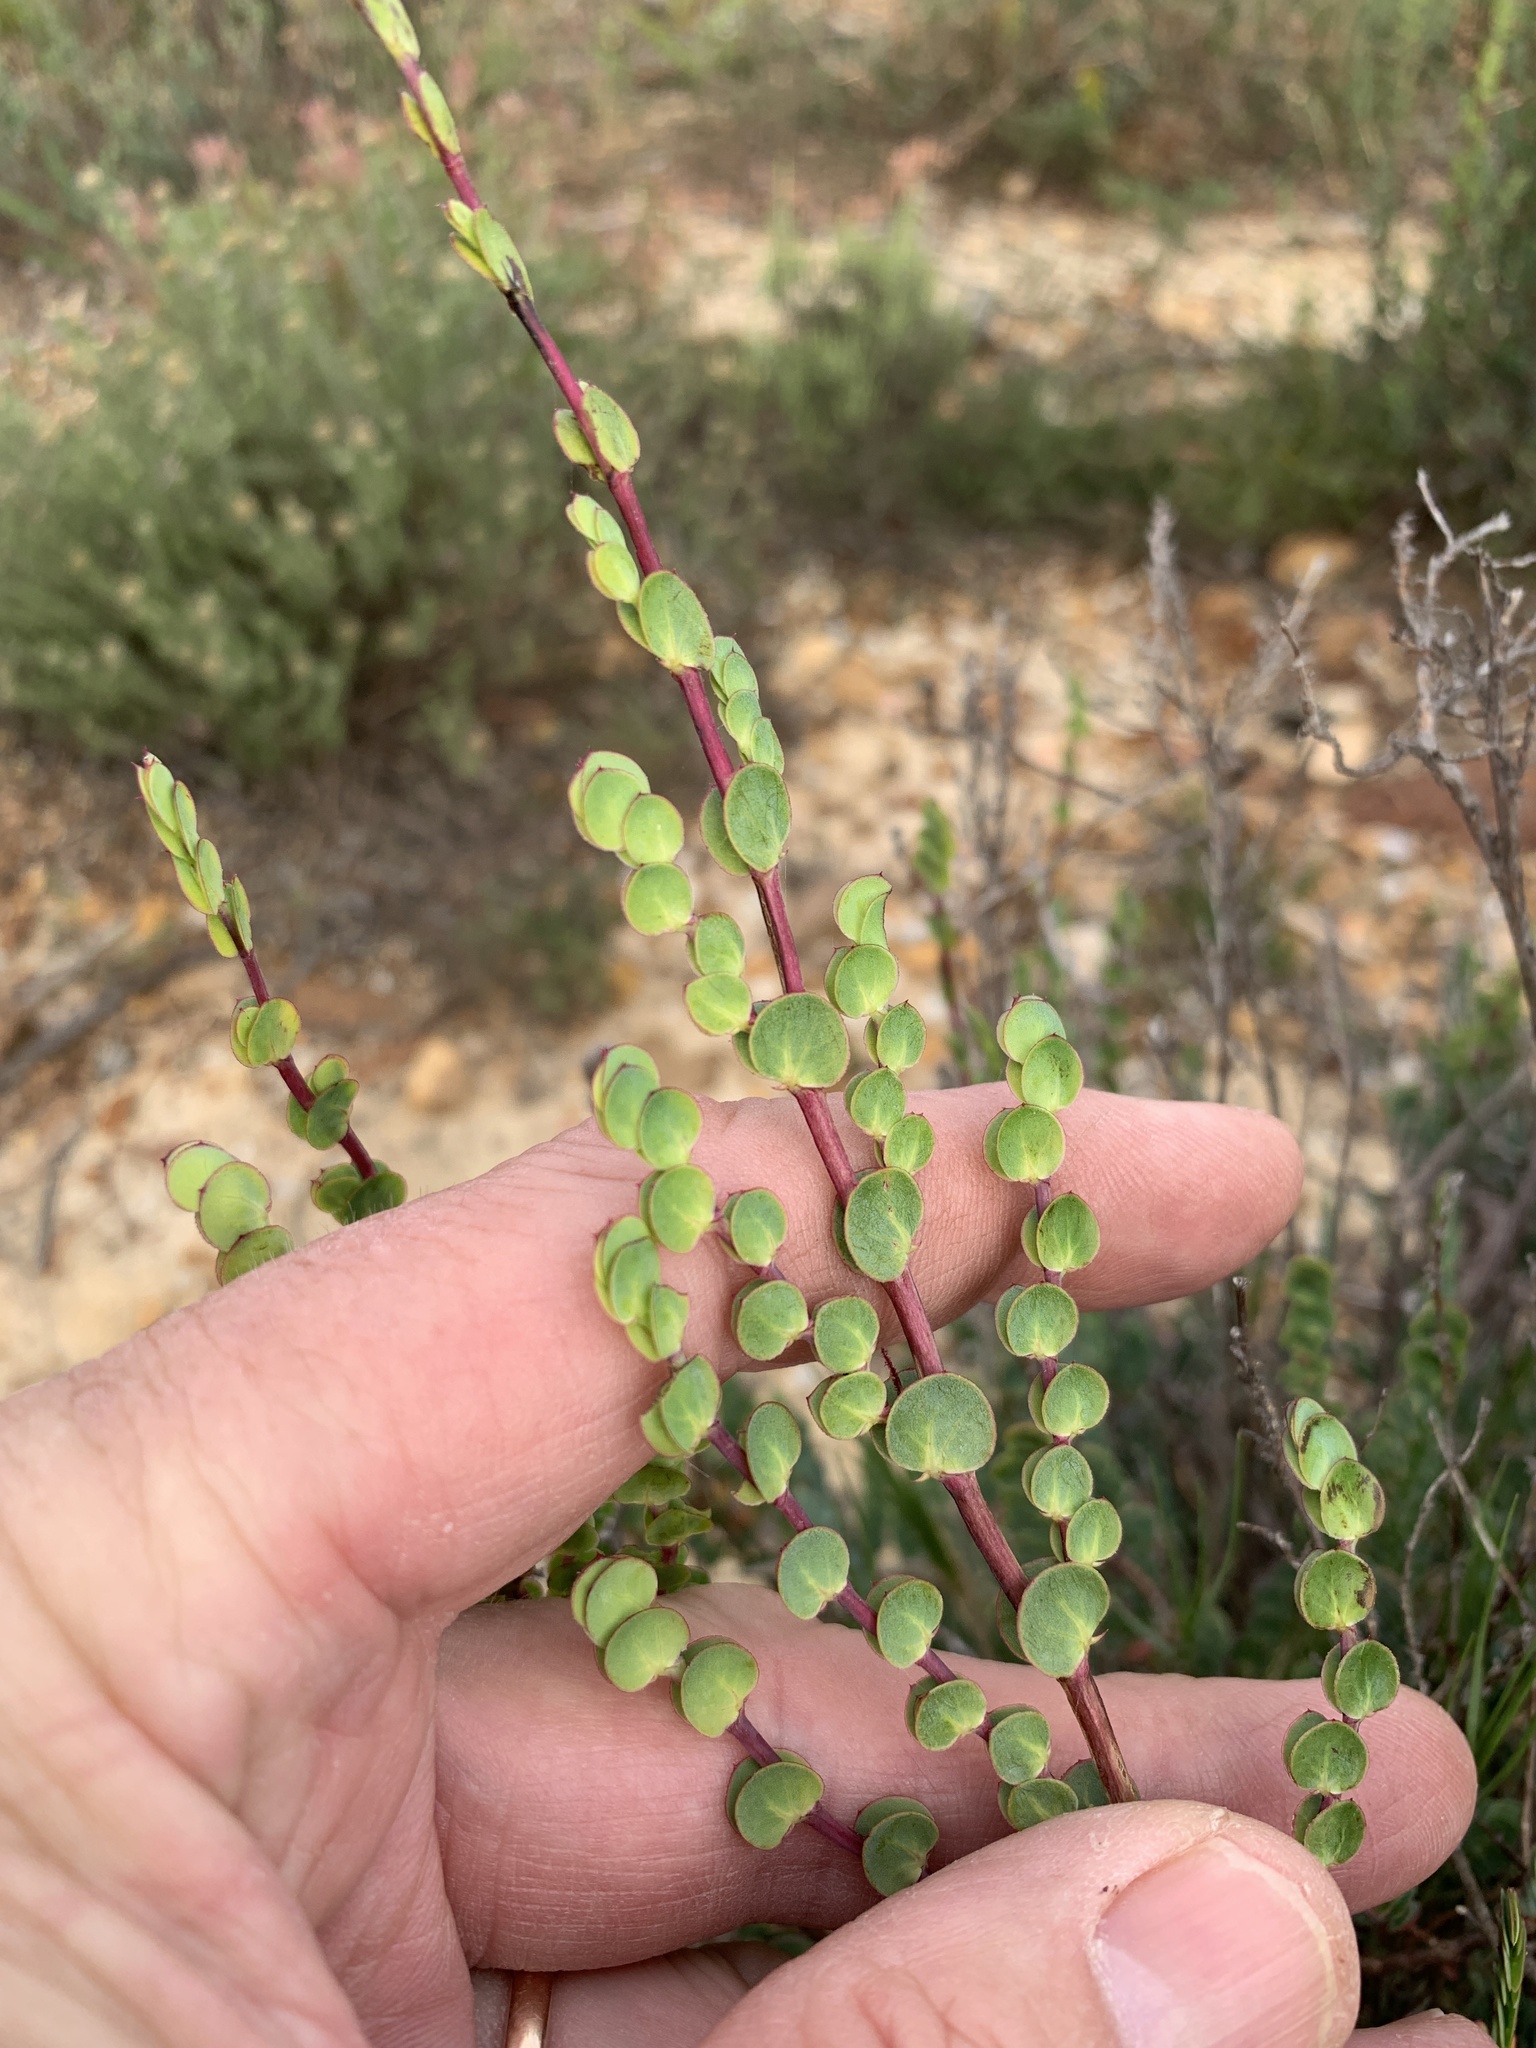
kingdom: Plantae
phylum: Tracheophyta
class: Magnoliopsida
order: Rosales
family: Rosaceae
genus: Cliffortia
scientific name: Cliffortia phyllanthoides
